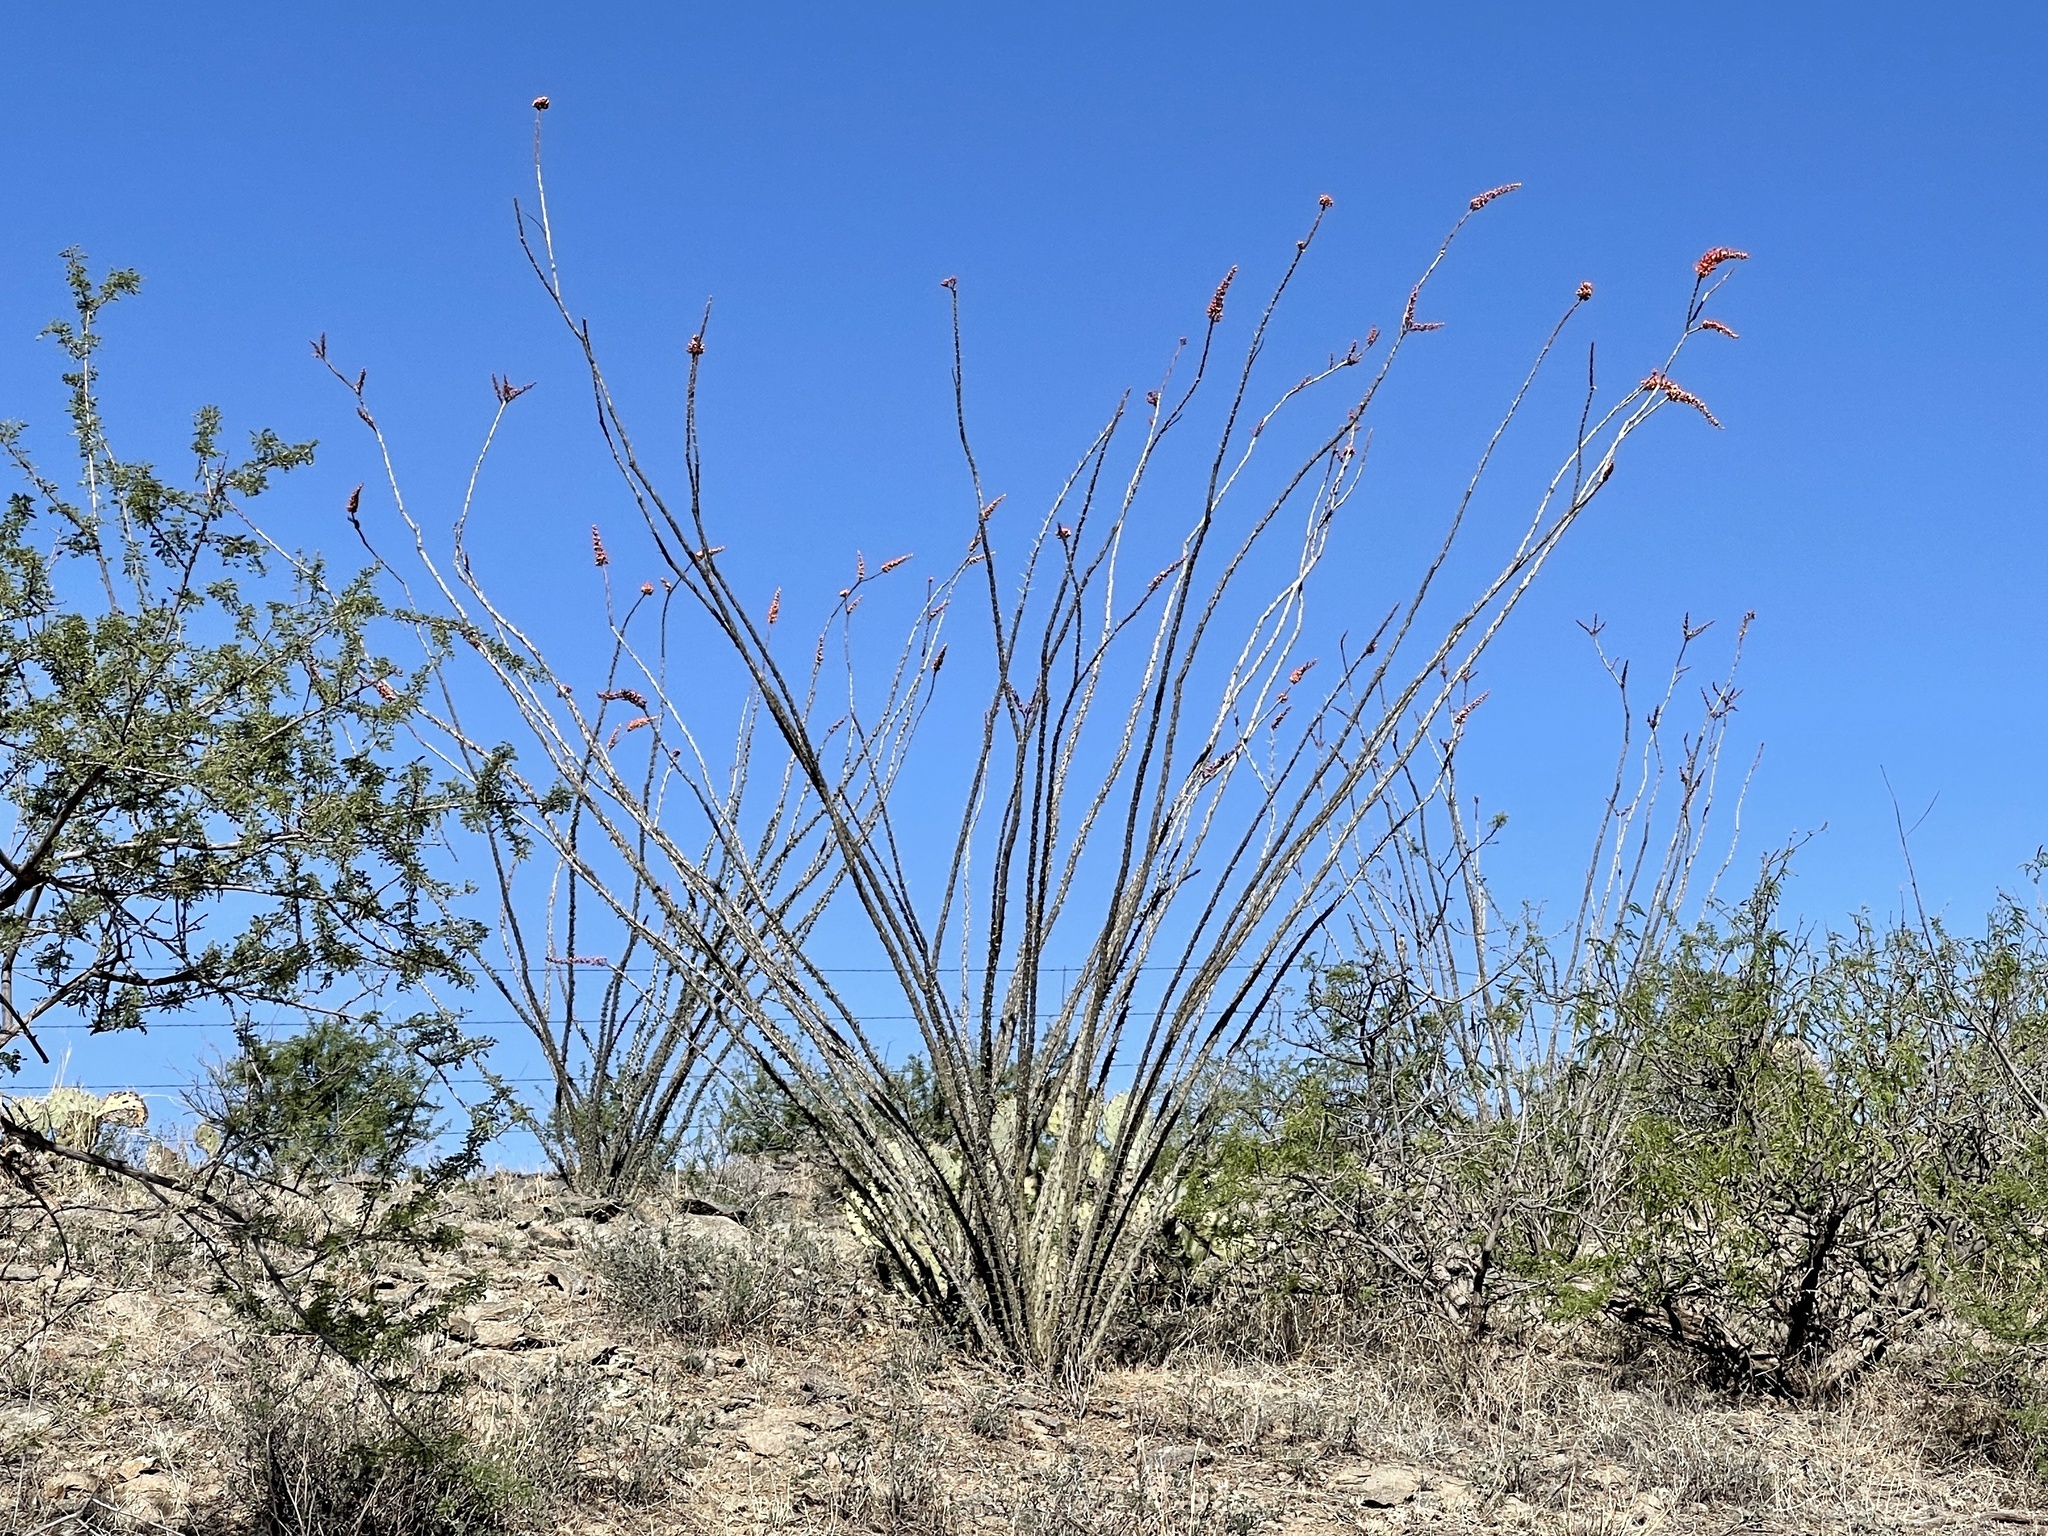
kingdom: Plantae
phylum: Tracheophyta
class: Magnoliopsida
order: Ericales
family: Fouquieriaceae
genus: Fouquieria
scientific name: Fouquieria splendens
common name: Vine-cactus
